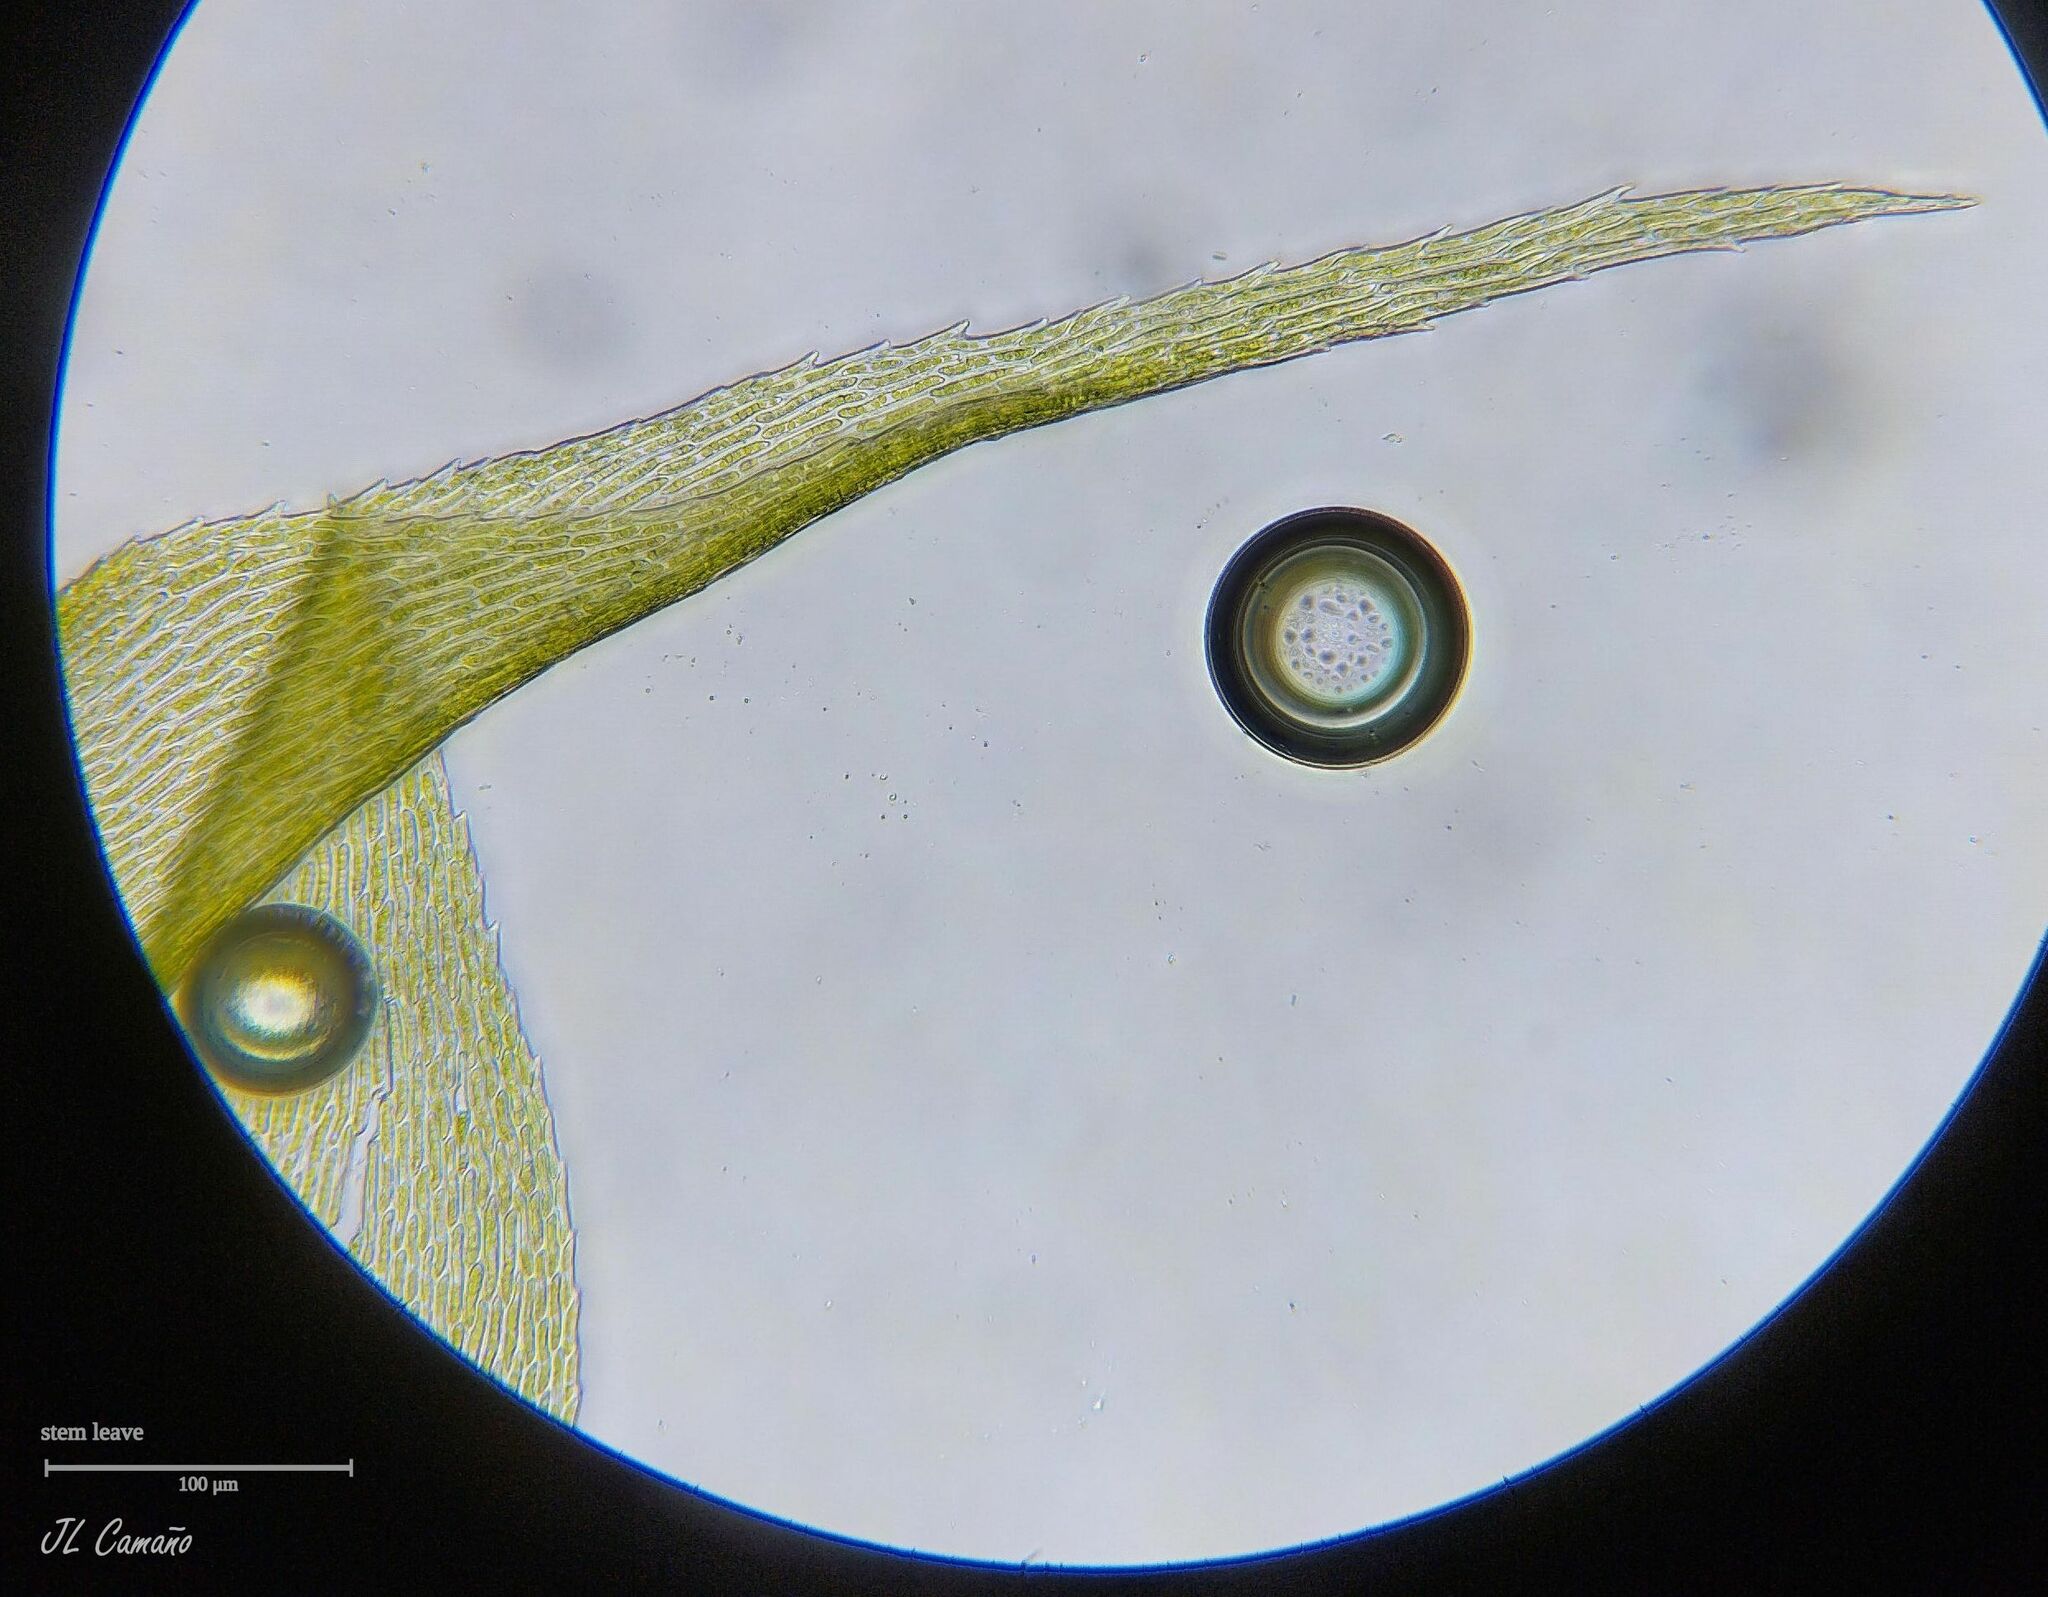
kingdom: Plantae
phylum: Bryophyta
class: Bryopsida
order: Hypnales
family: Lembophyllaceae
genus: Pseudisothecium
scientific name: Pseudisothecium myosuroides
